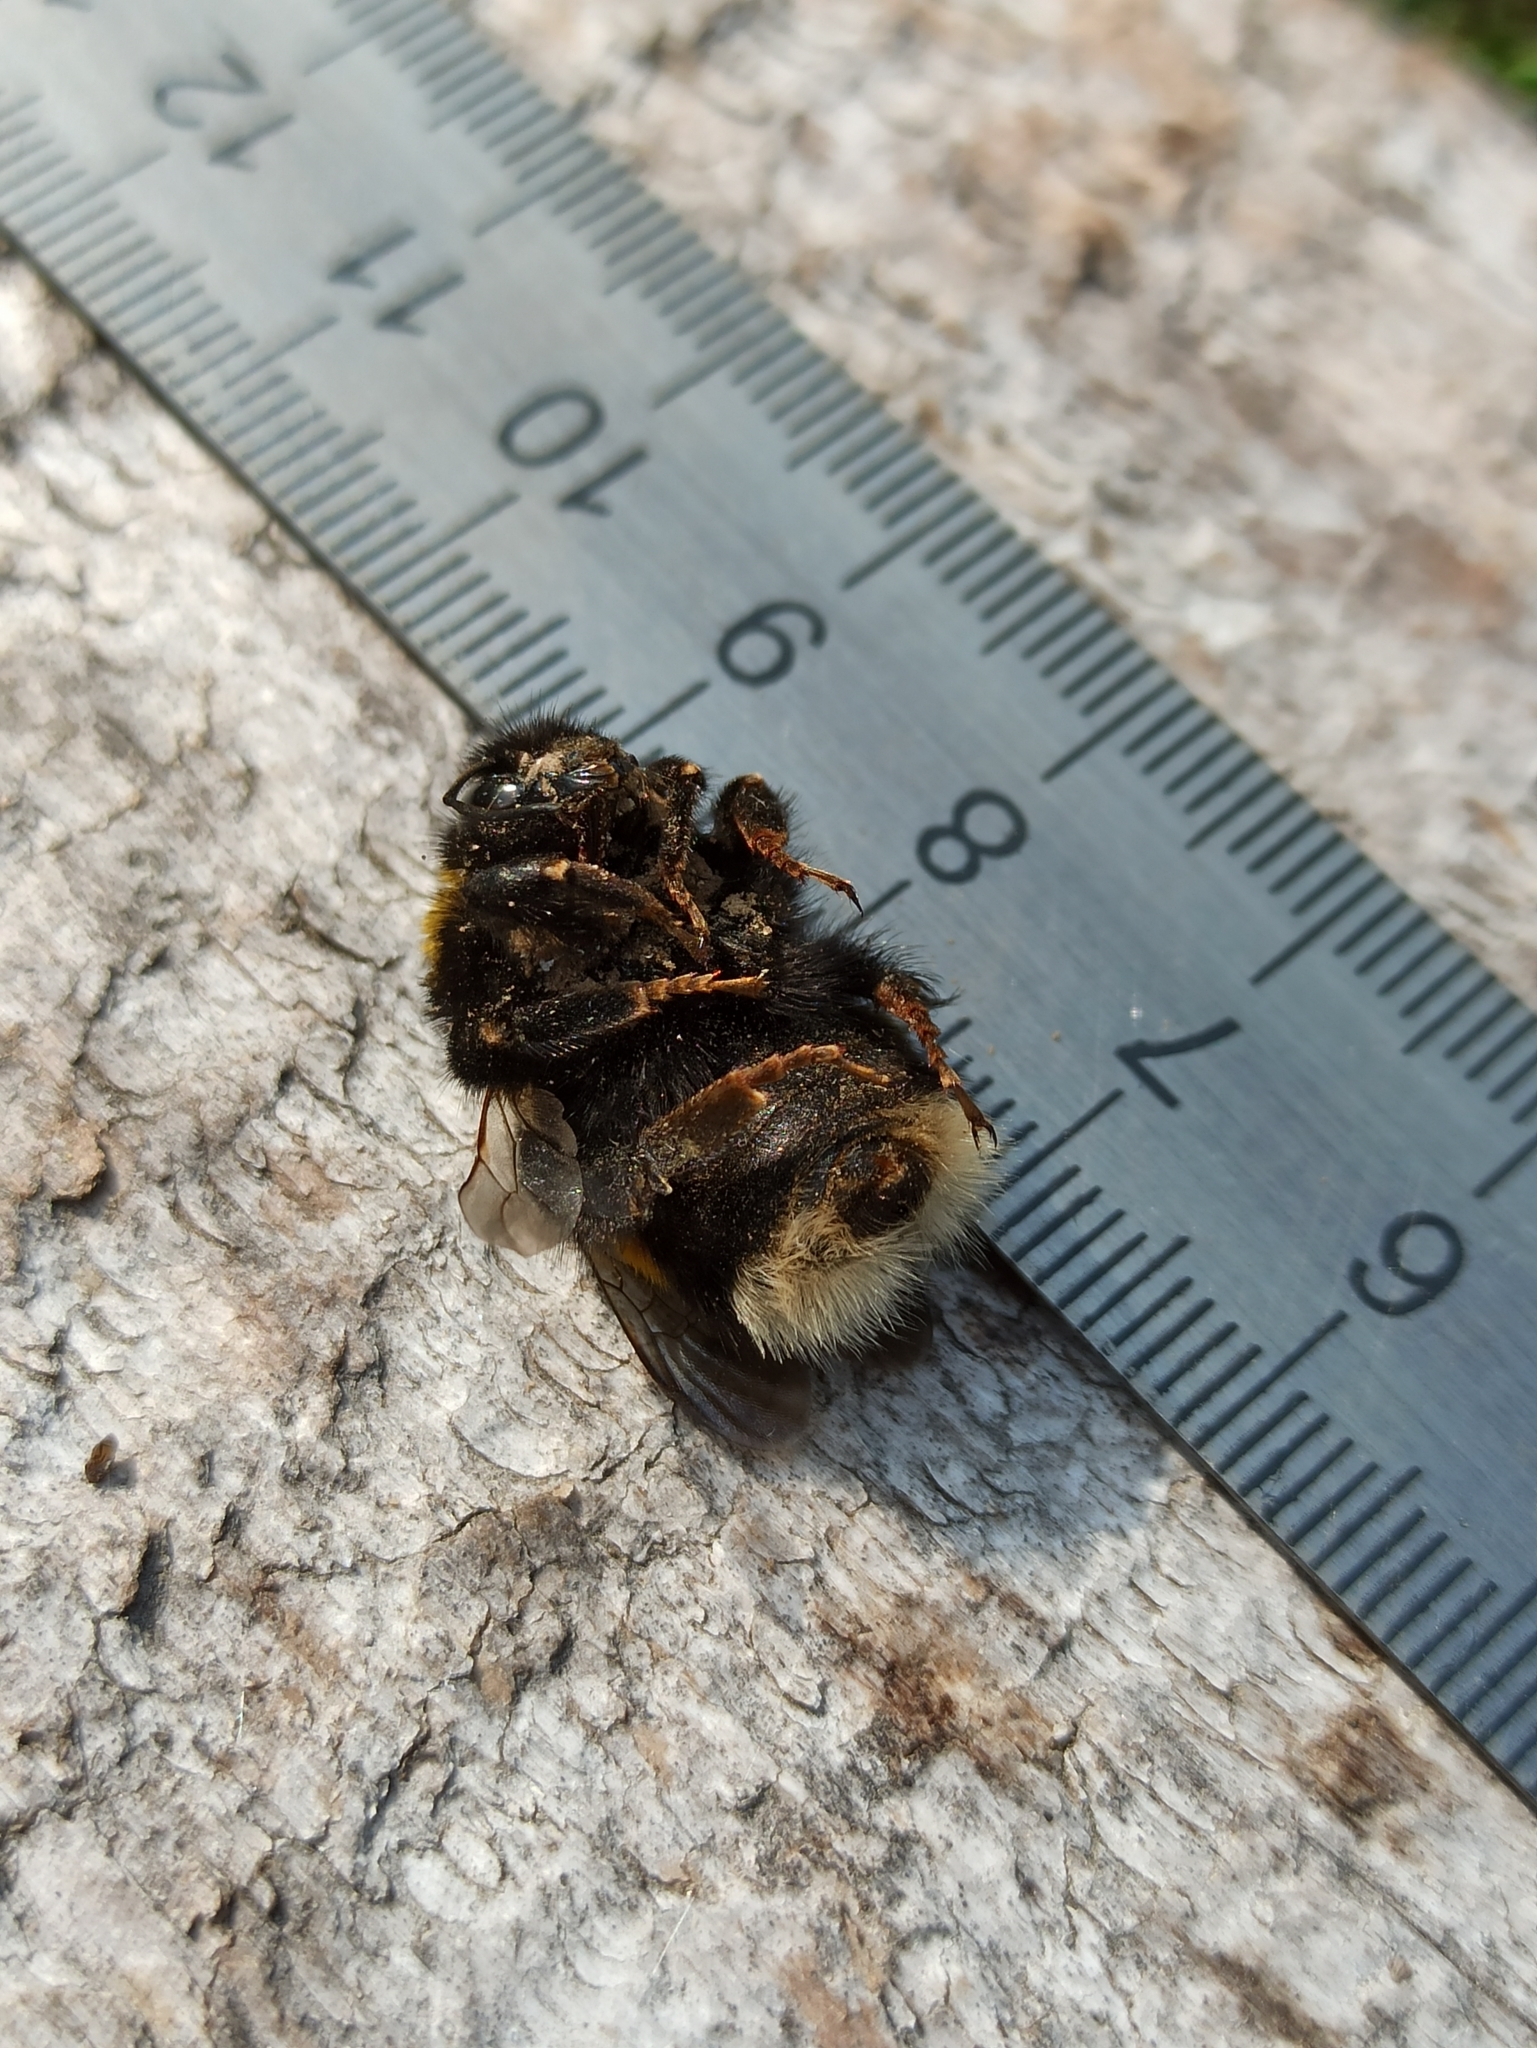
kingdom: Animalia
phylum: Arthropoda
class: Insecta
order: Hymenoptera
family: Apidae
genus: Bombus
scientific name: Bombus terrestris
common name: Buff-tailed bumblebee
